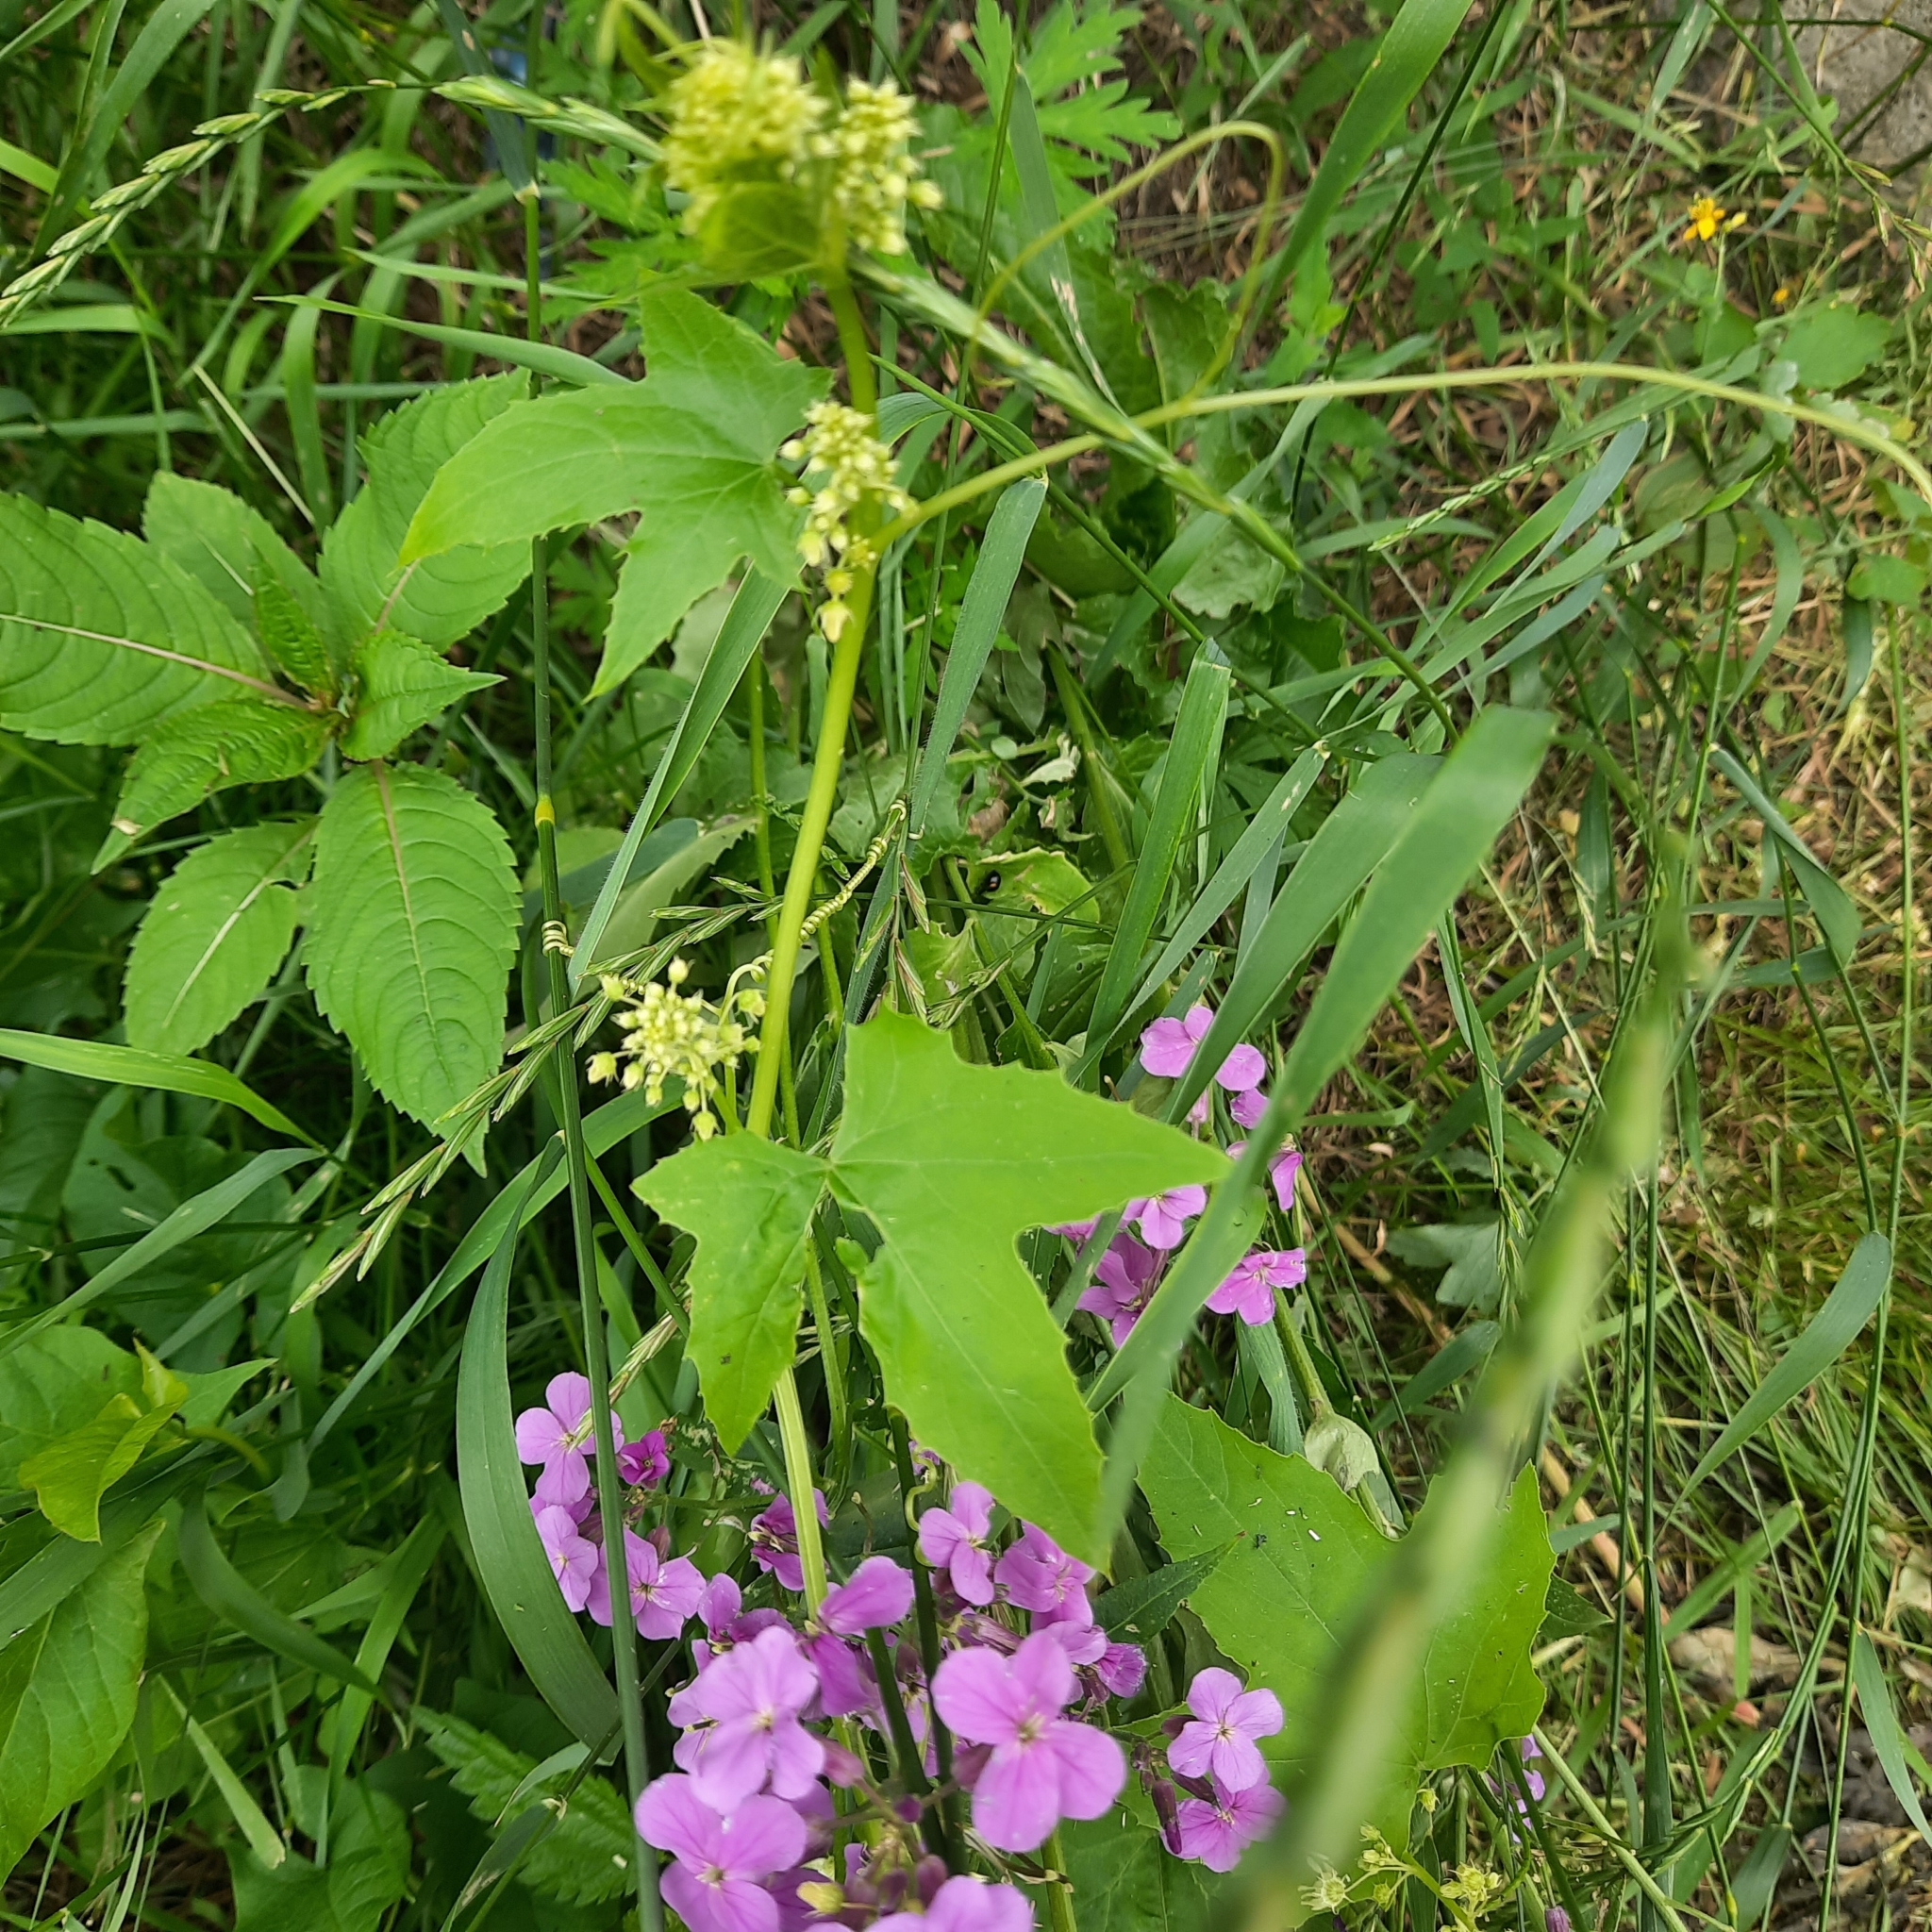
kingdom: Plantae
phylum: Tracheophyta
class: Magnoliopsida
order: Cucurbitales
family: Cucurbitaceae
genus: Echinocystis
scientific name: Echinocystis lobata
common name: Wild cucumber
